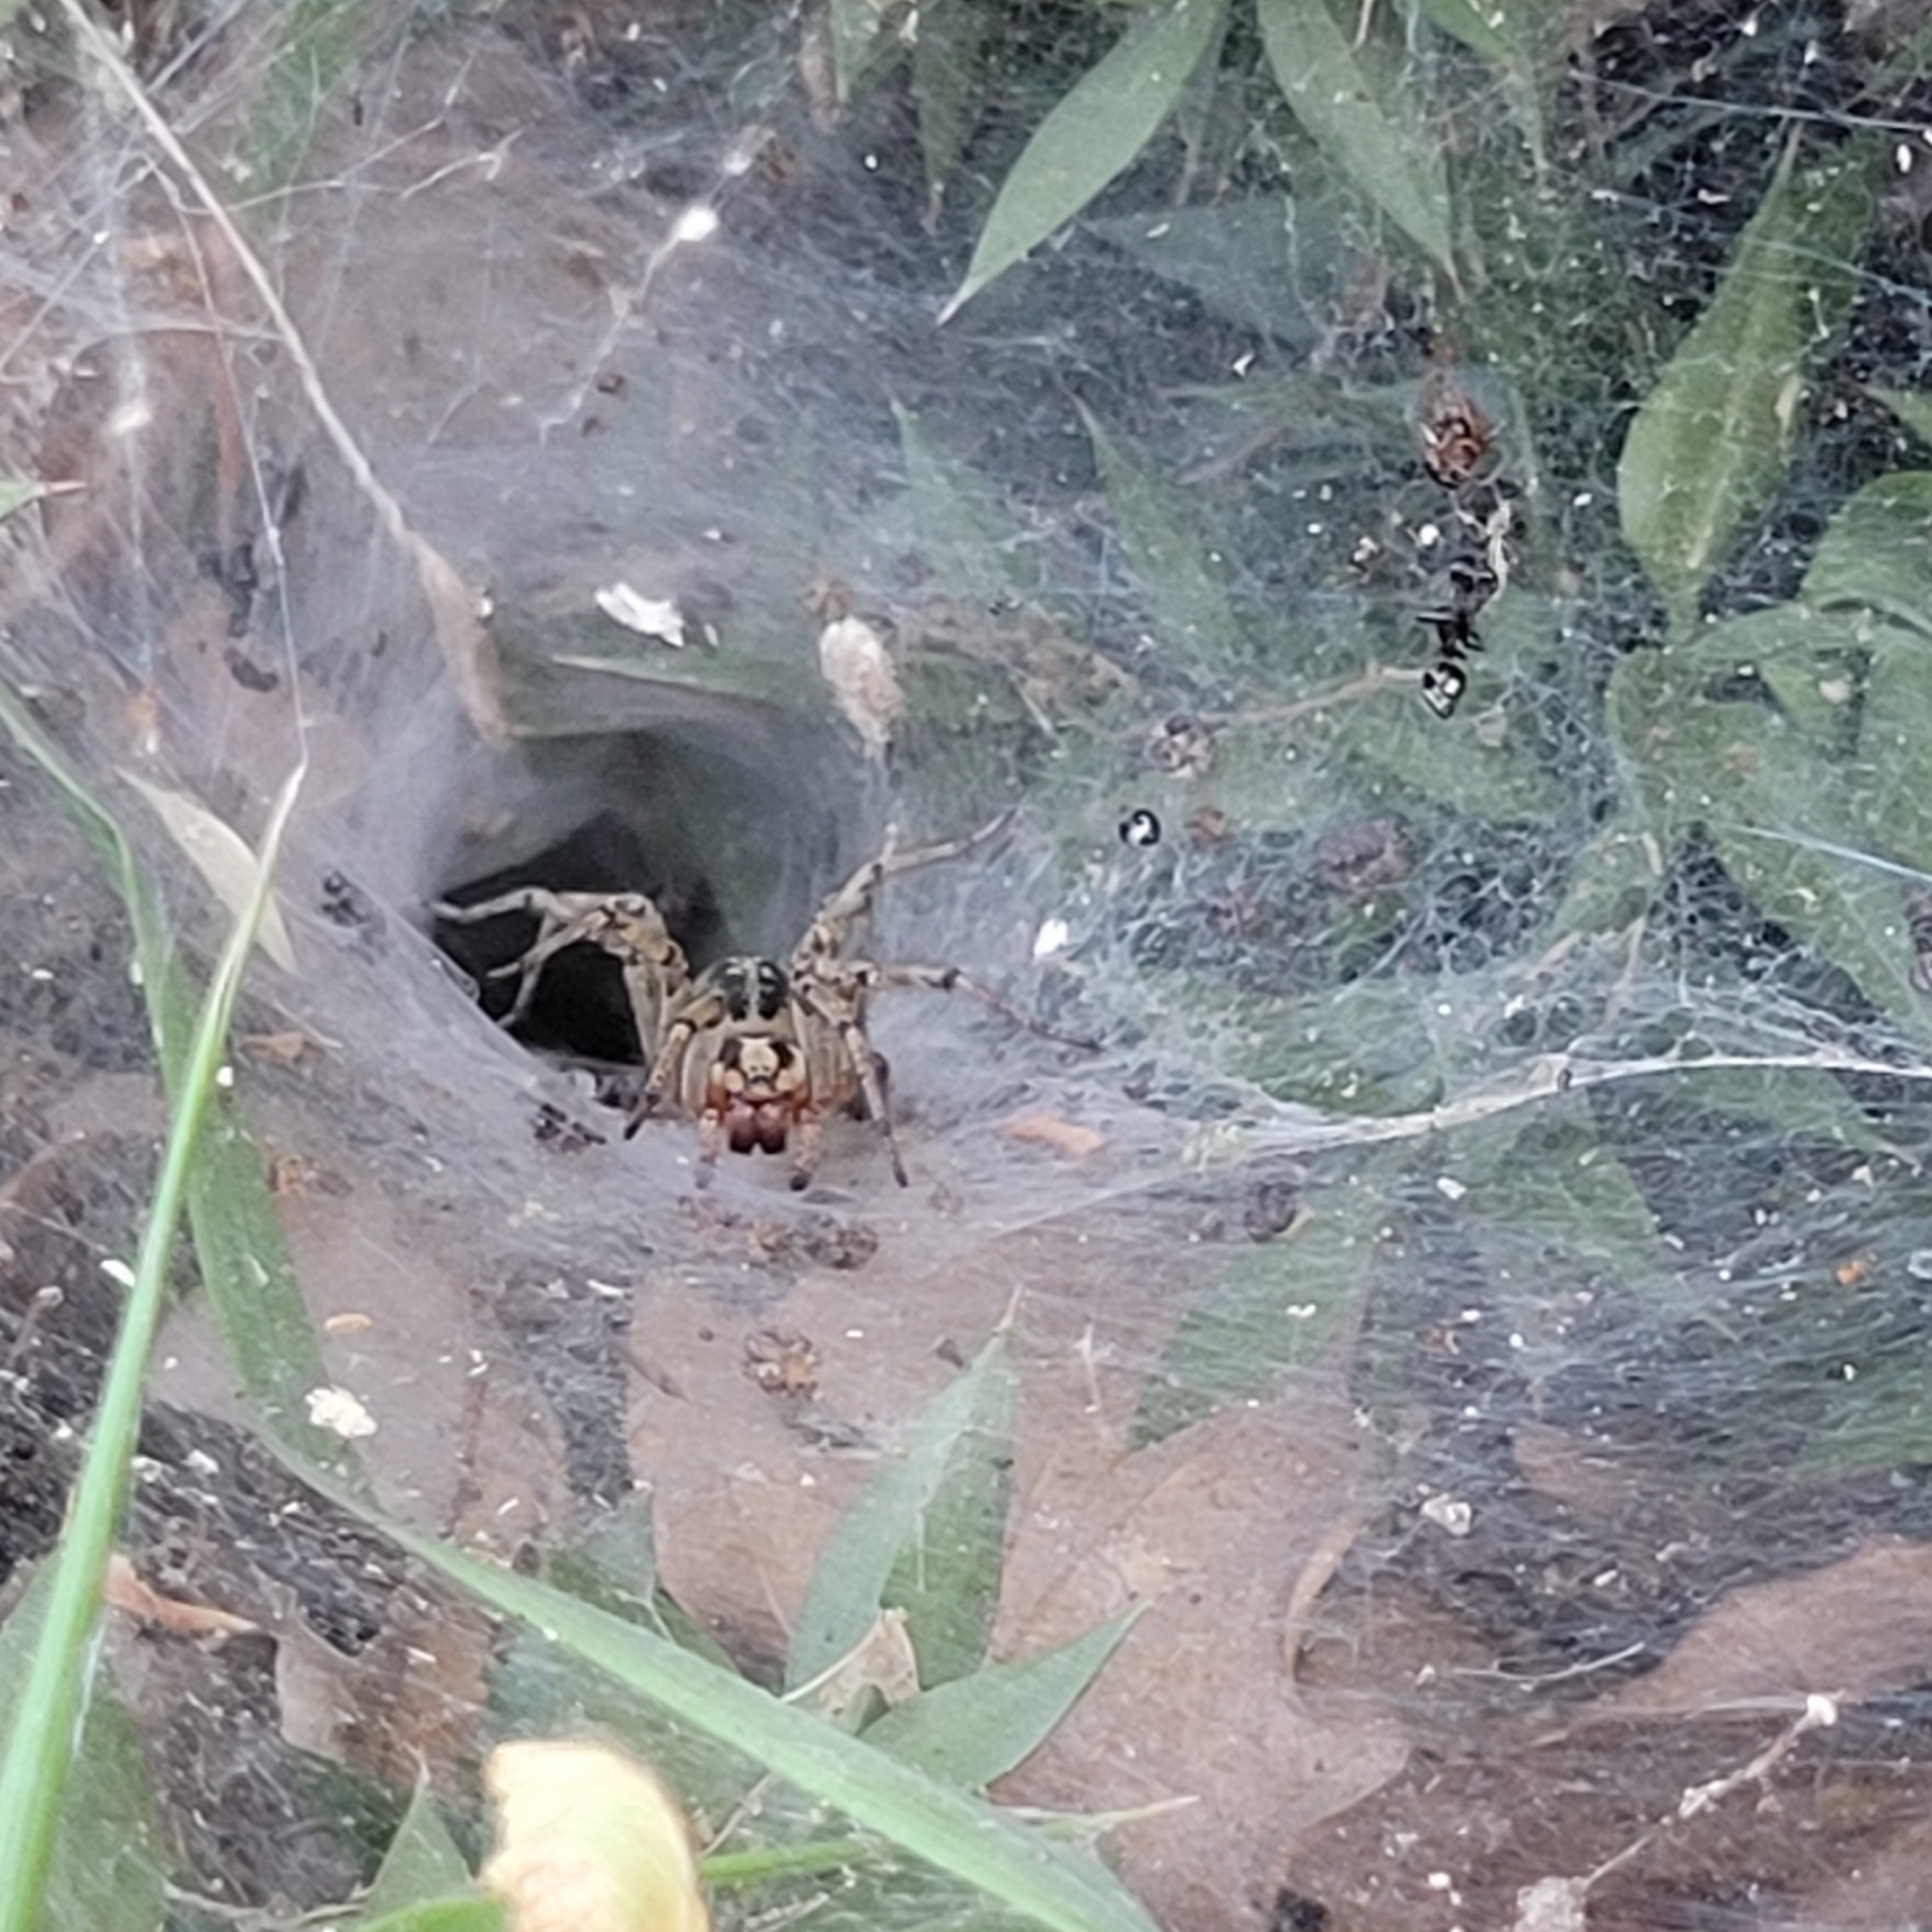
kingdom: Animalia
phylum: Arthropoda
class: Arachnida
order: Araneae
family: Agelenidae
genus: Agelena
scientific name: Agelena labyrinthica
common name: Labyrinth spider
